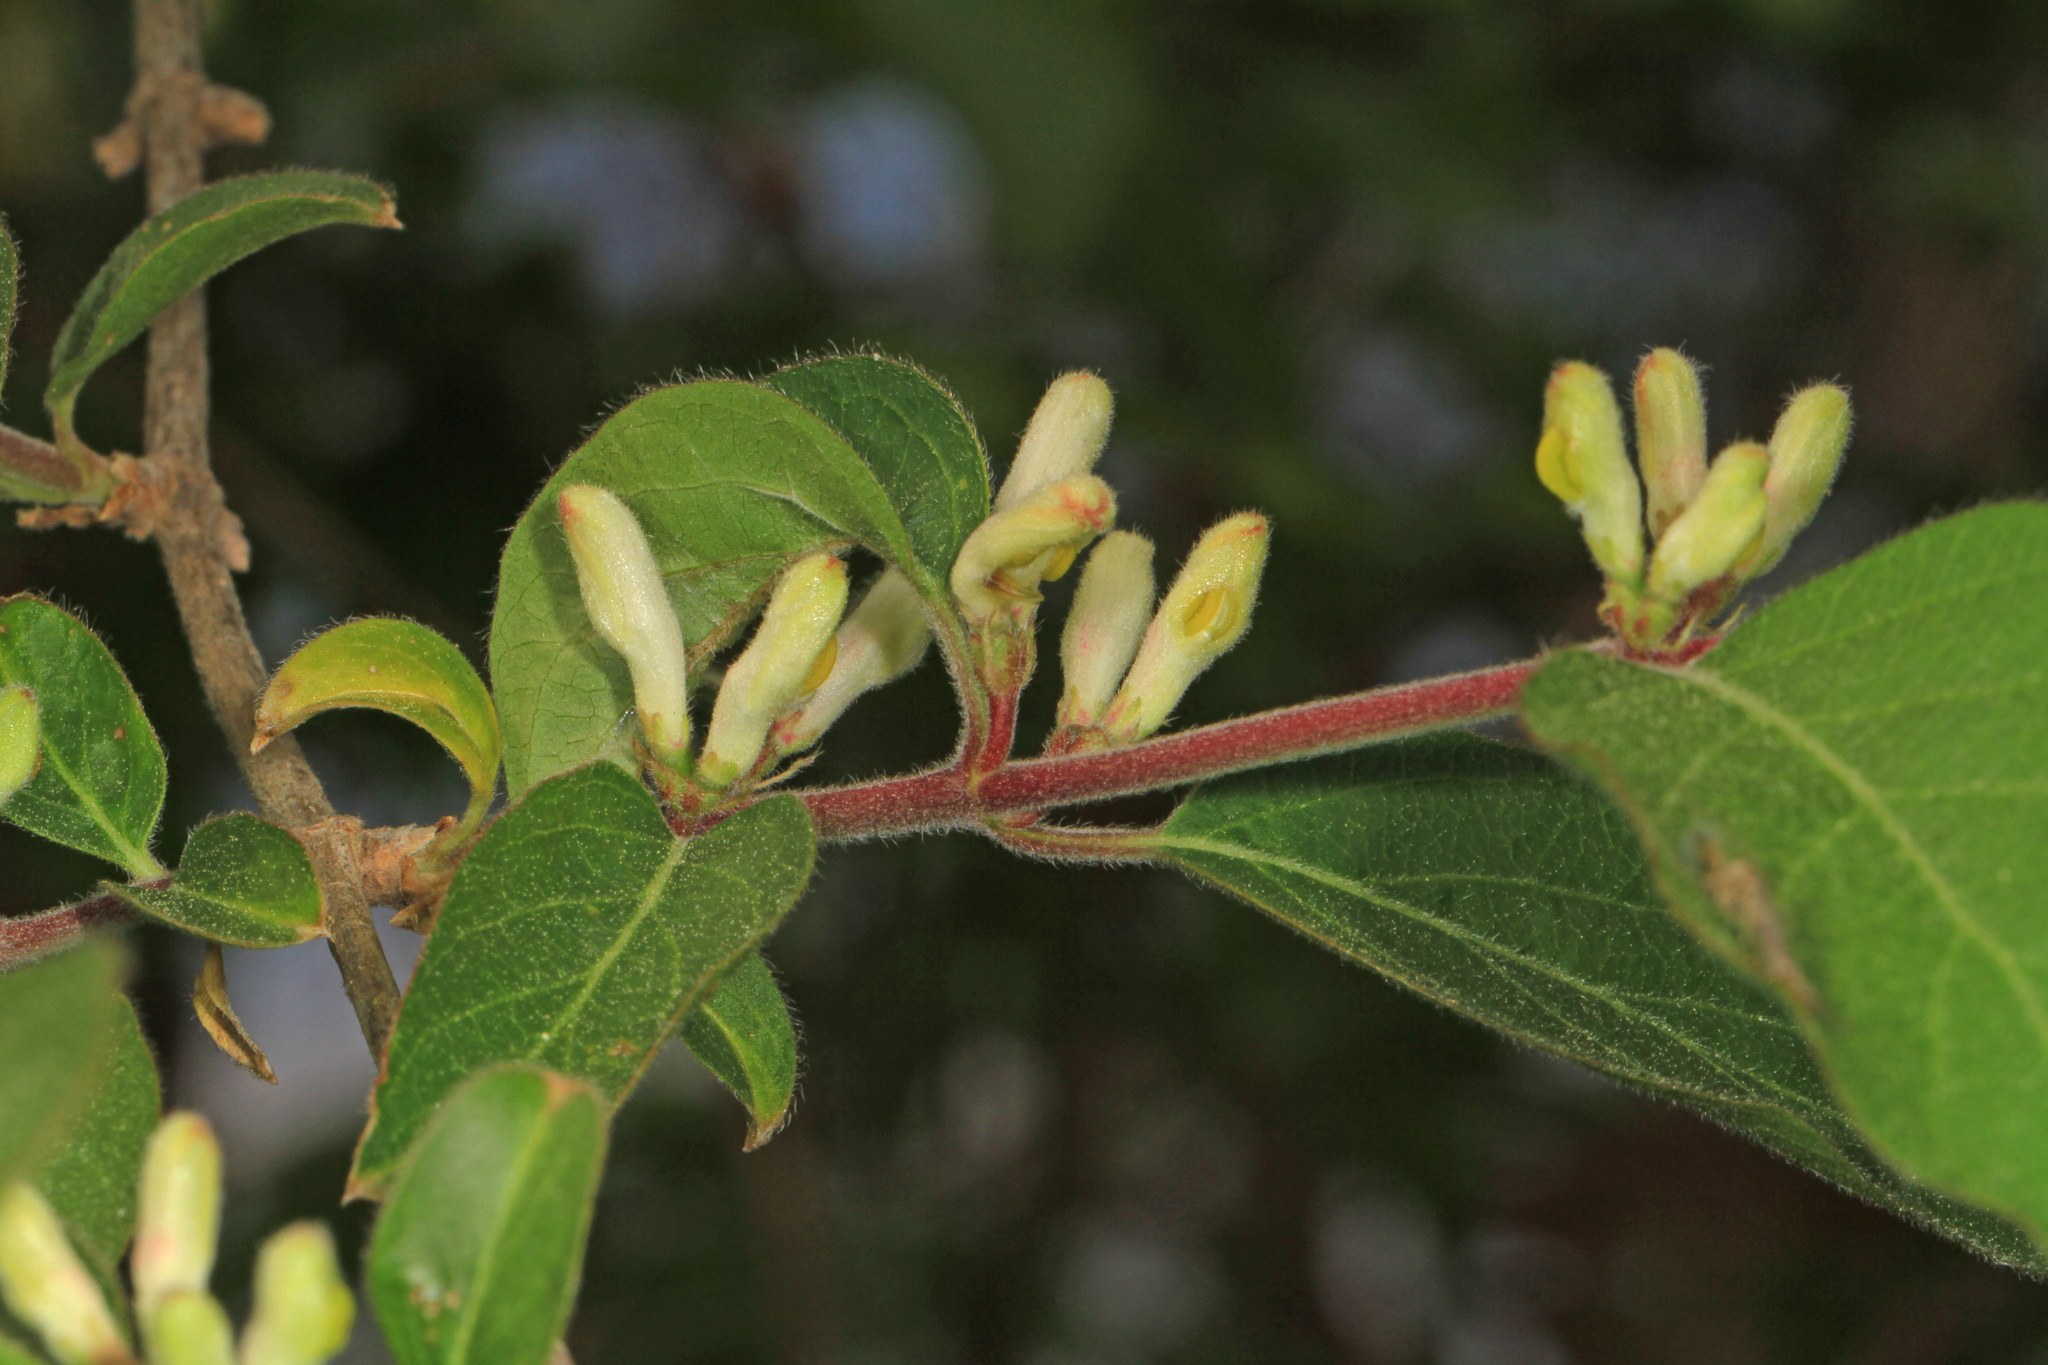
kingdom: Plantae
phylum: Tracheophyta
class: Magnoliopsida
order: Dipsacales
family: Caprifoliaceae
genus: Lonicera
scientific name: Lonicera maackii
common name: Amur honeysuckle
